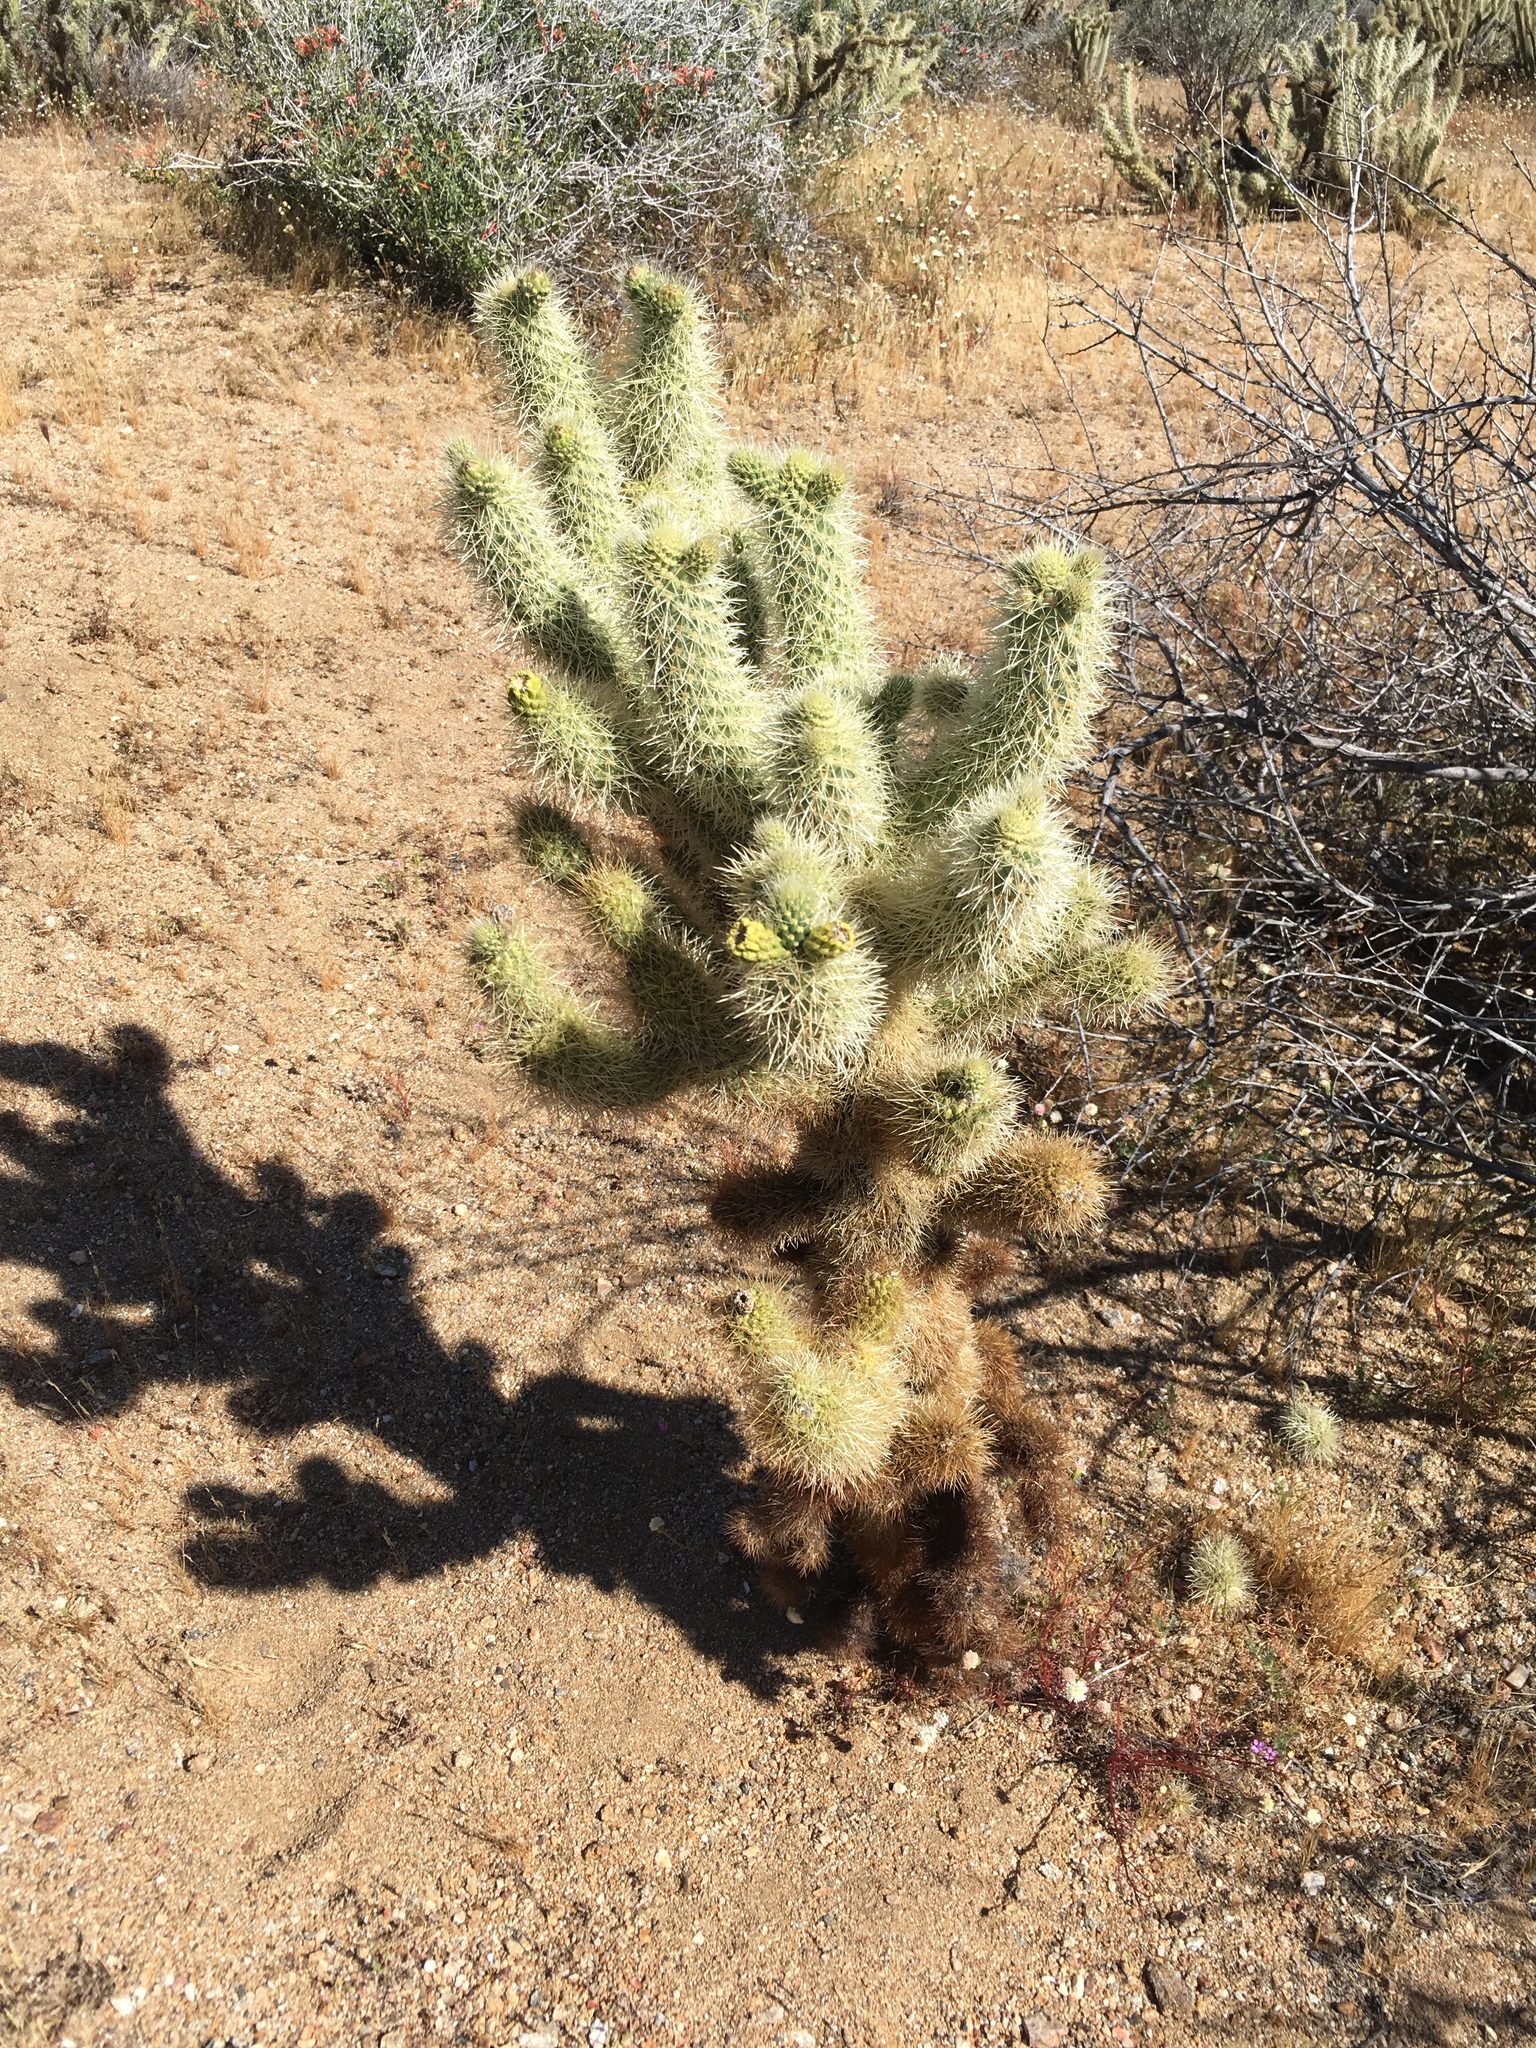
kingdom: Plantae
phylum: Tracheophyta
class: Magnoliopsida
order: Caryophyllales
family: Cactaceae
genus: Cylindropuntia
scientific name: Cylindropuntia fosbergii
